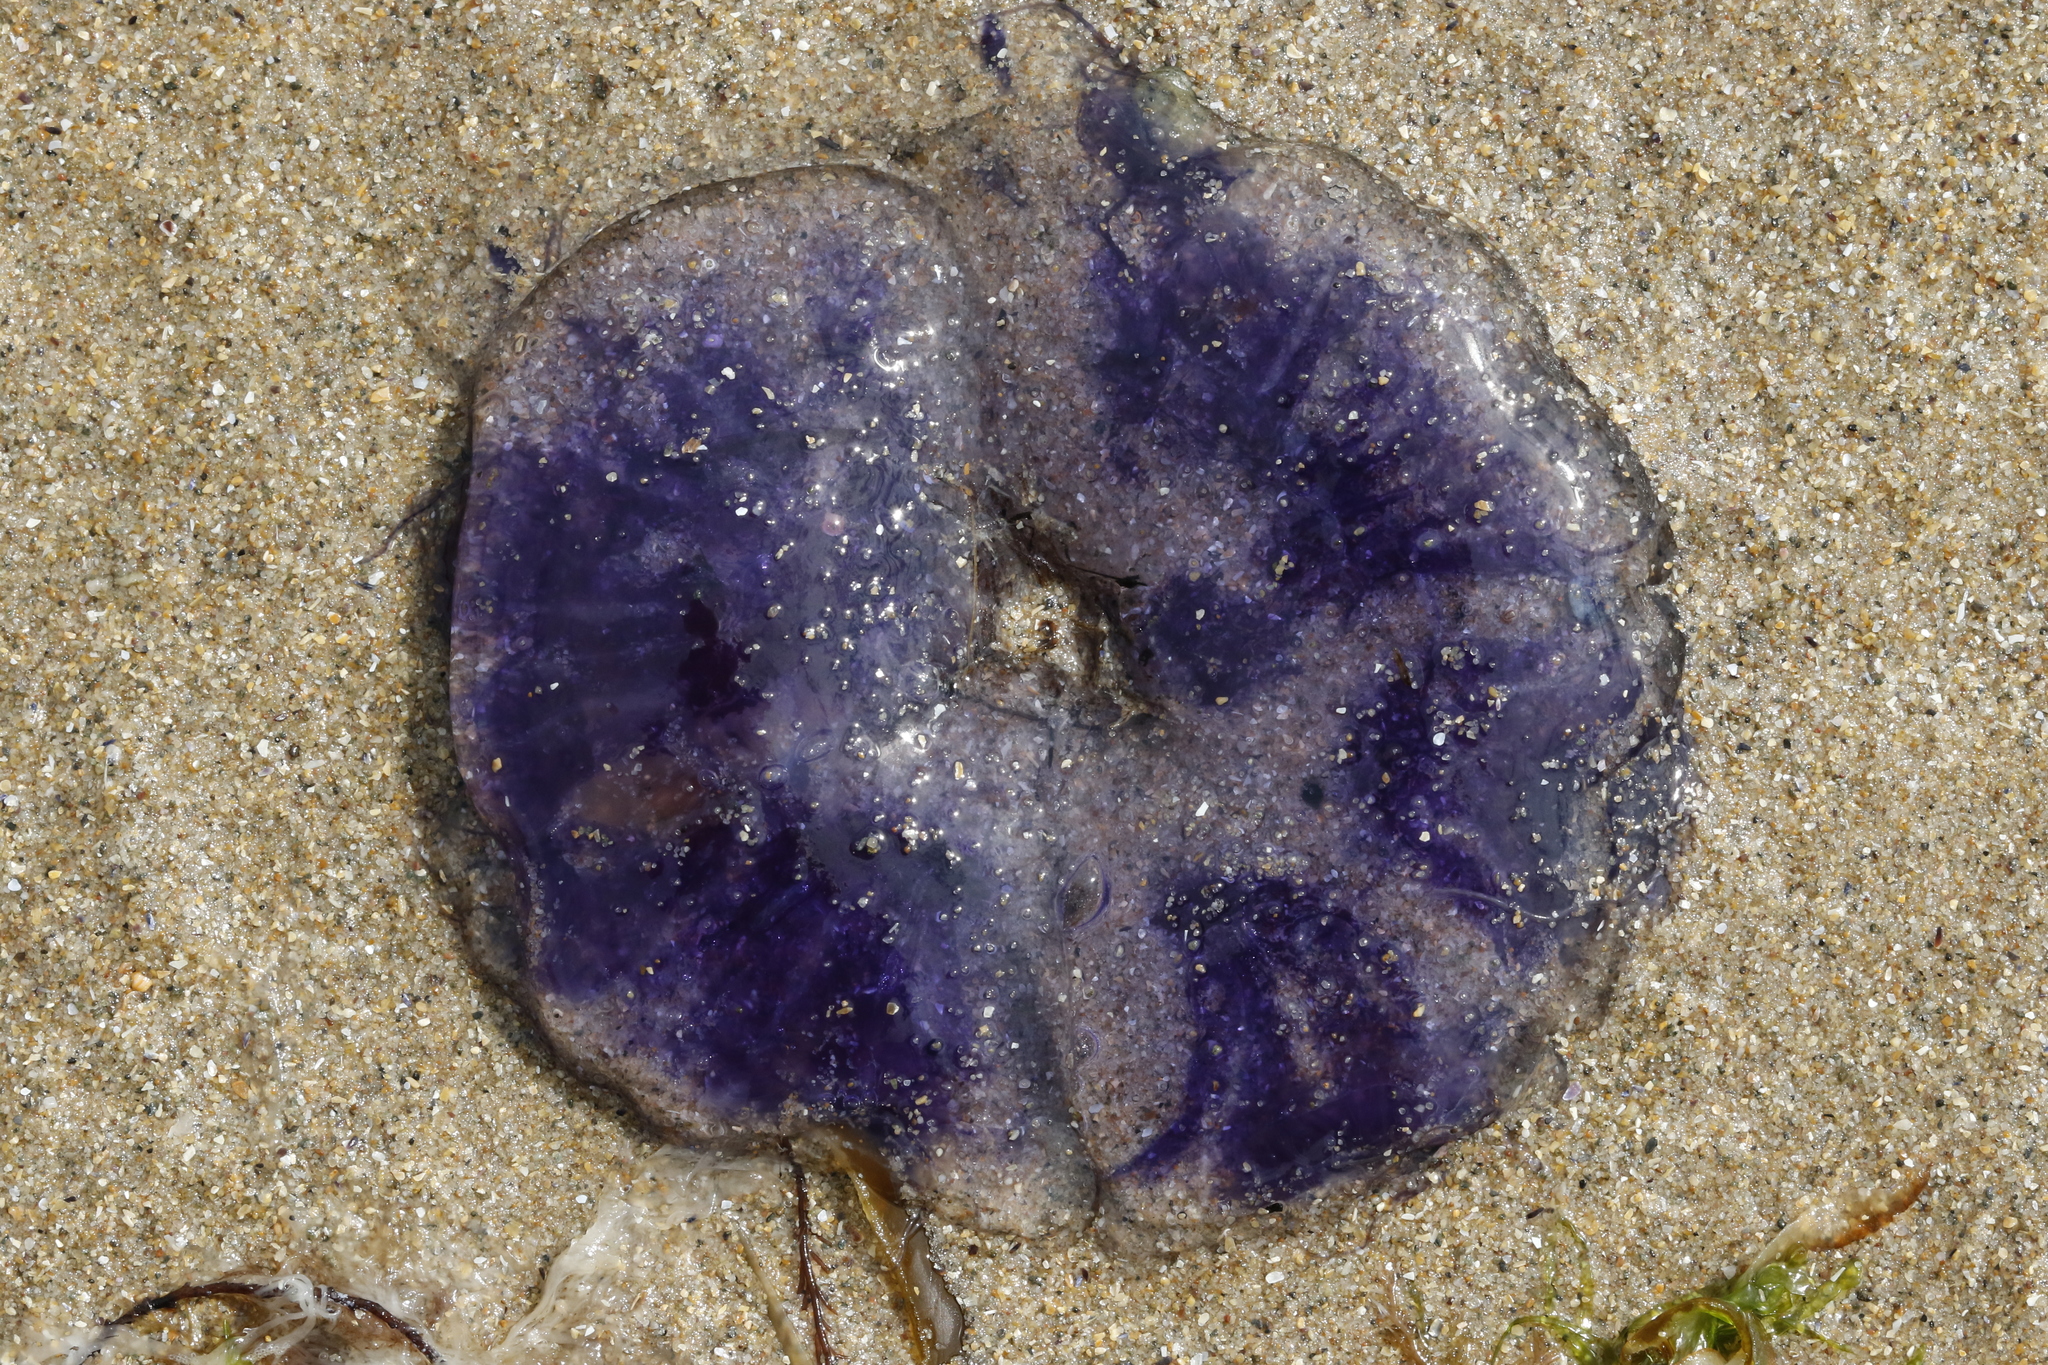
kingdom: Animalia
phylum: Cnidaria
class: Scyphozoa
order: Semaeostomeae
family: Cyaneidae
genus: Cyanea
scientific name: Cyanea lamarckii
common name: Blue jellyfish
